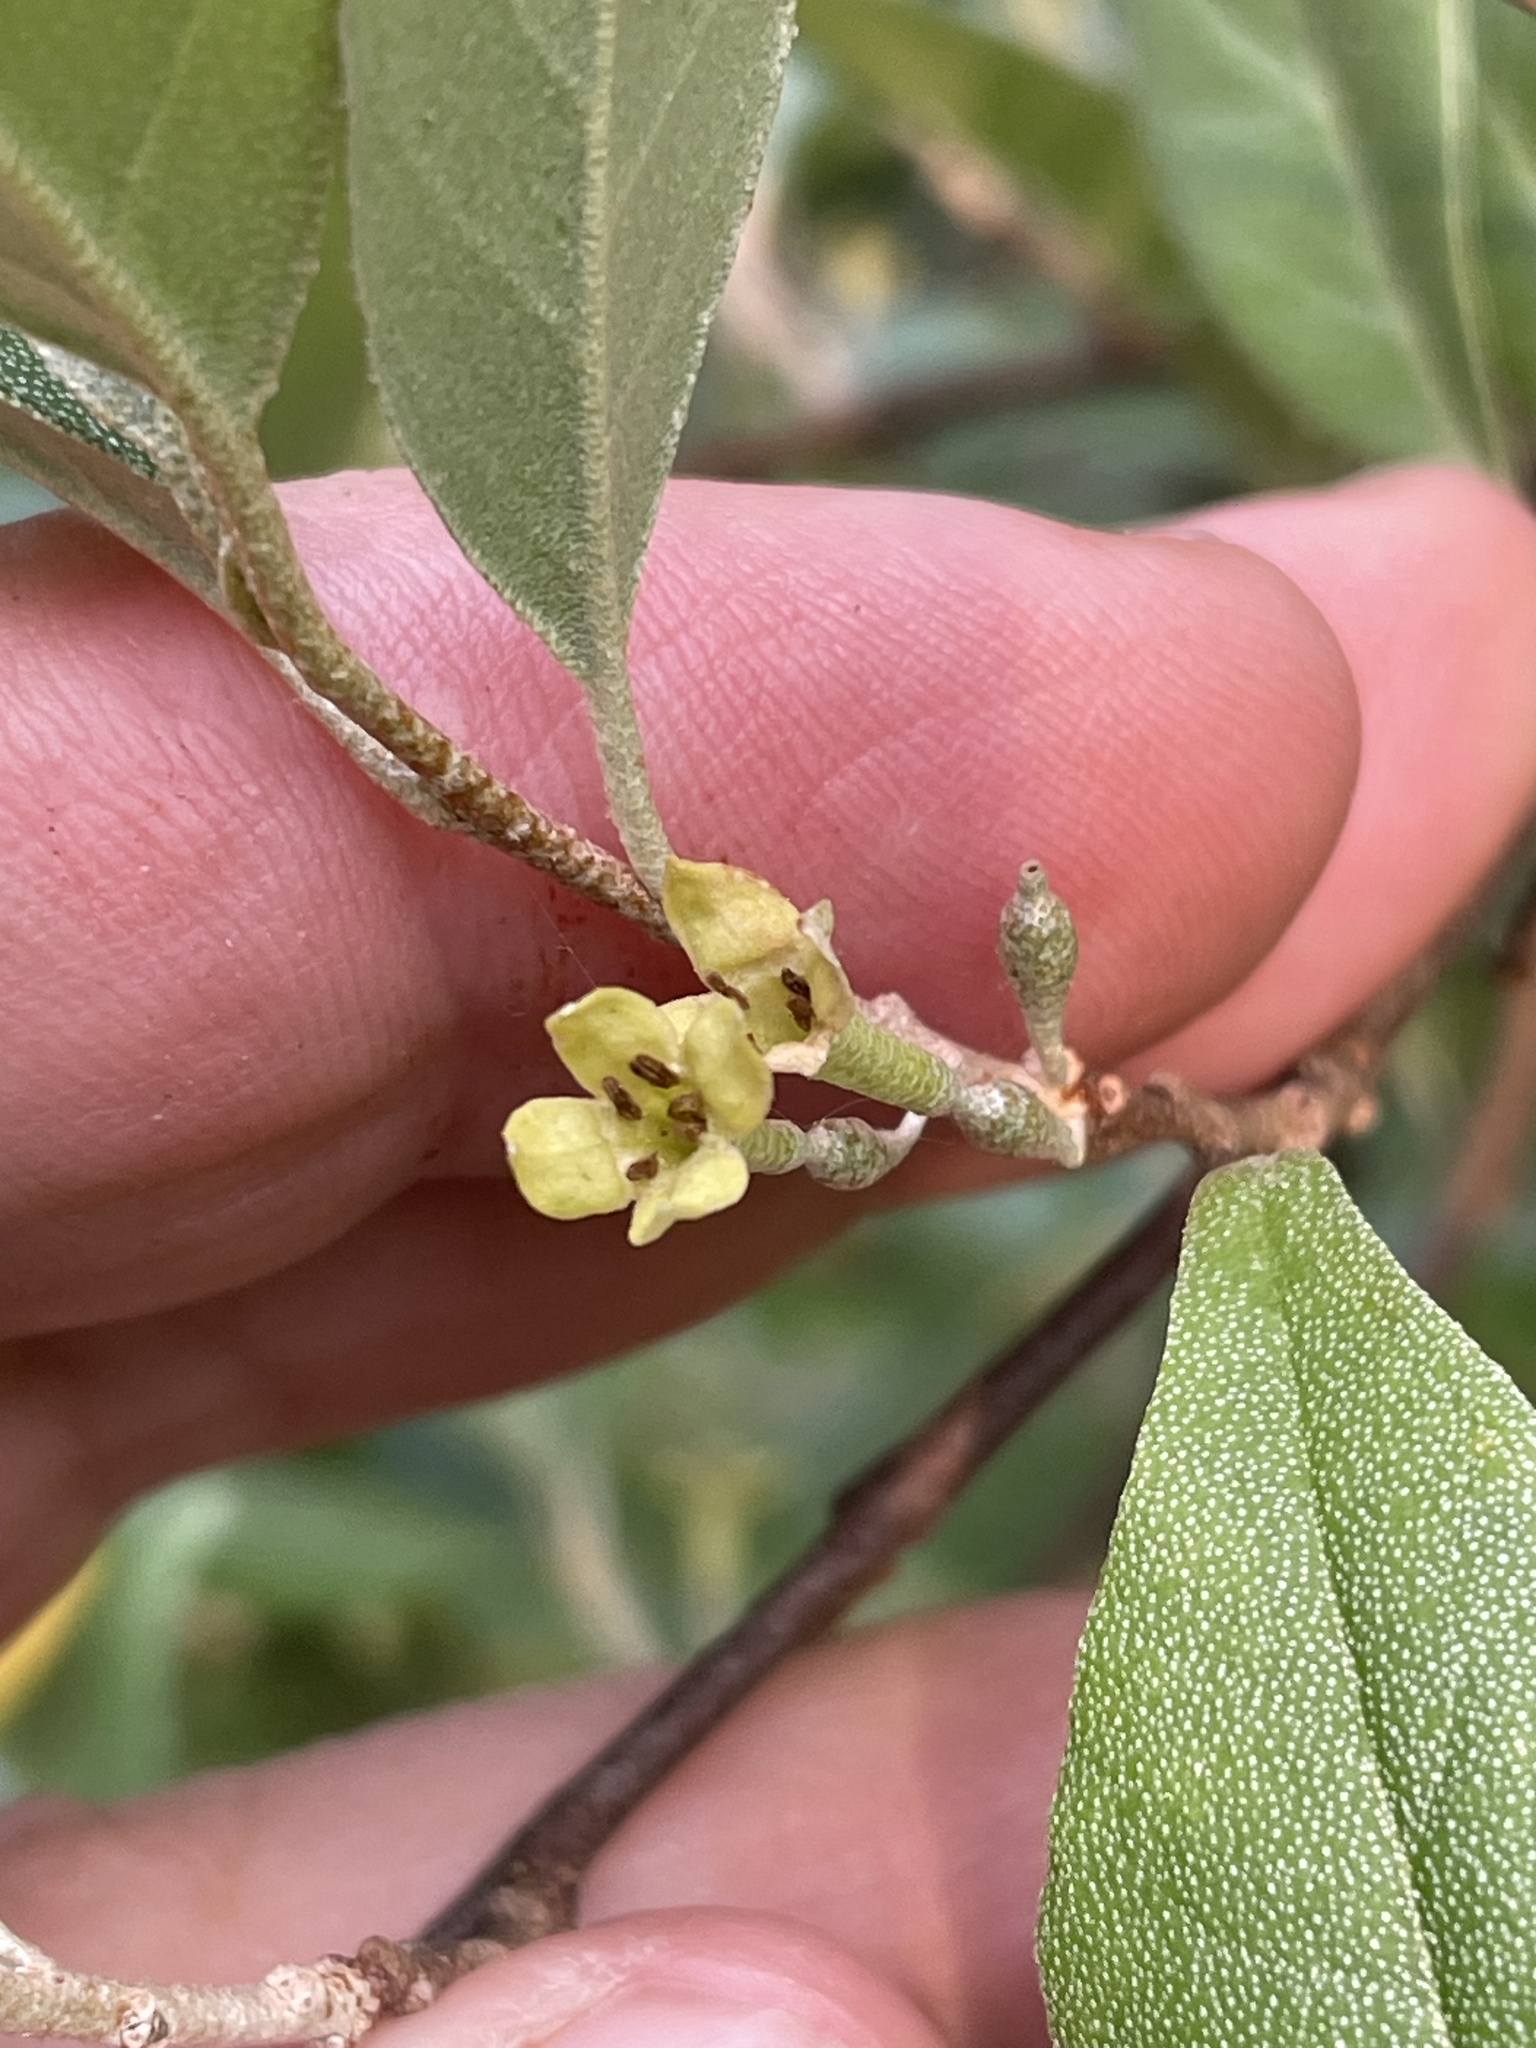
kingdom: Plantae
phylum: Tracheophyta
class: Magnoliopsida
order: Rosales
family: Elaeagnaceae
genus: Elaeagnus
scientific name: Elaeagnus umbellata
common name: Autumn olive
